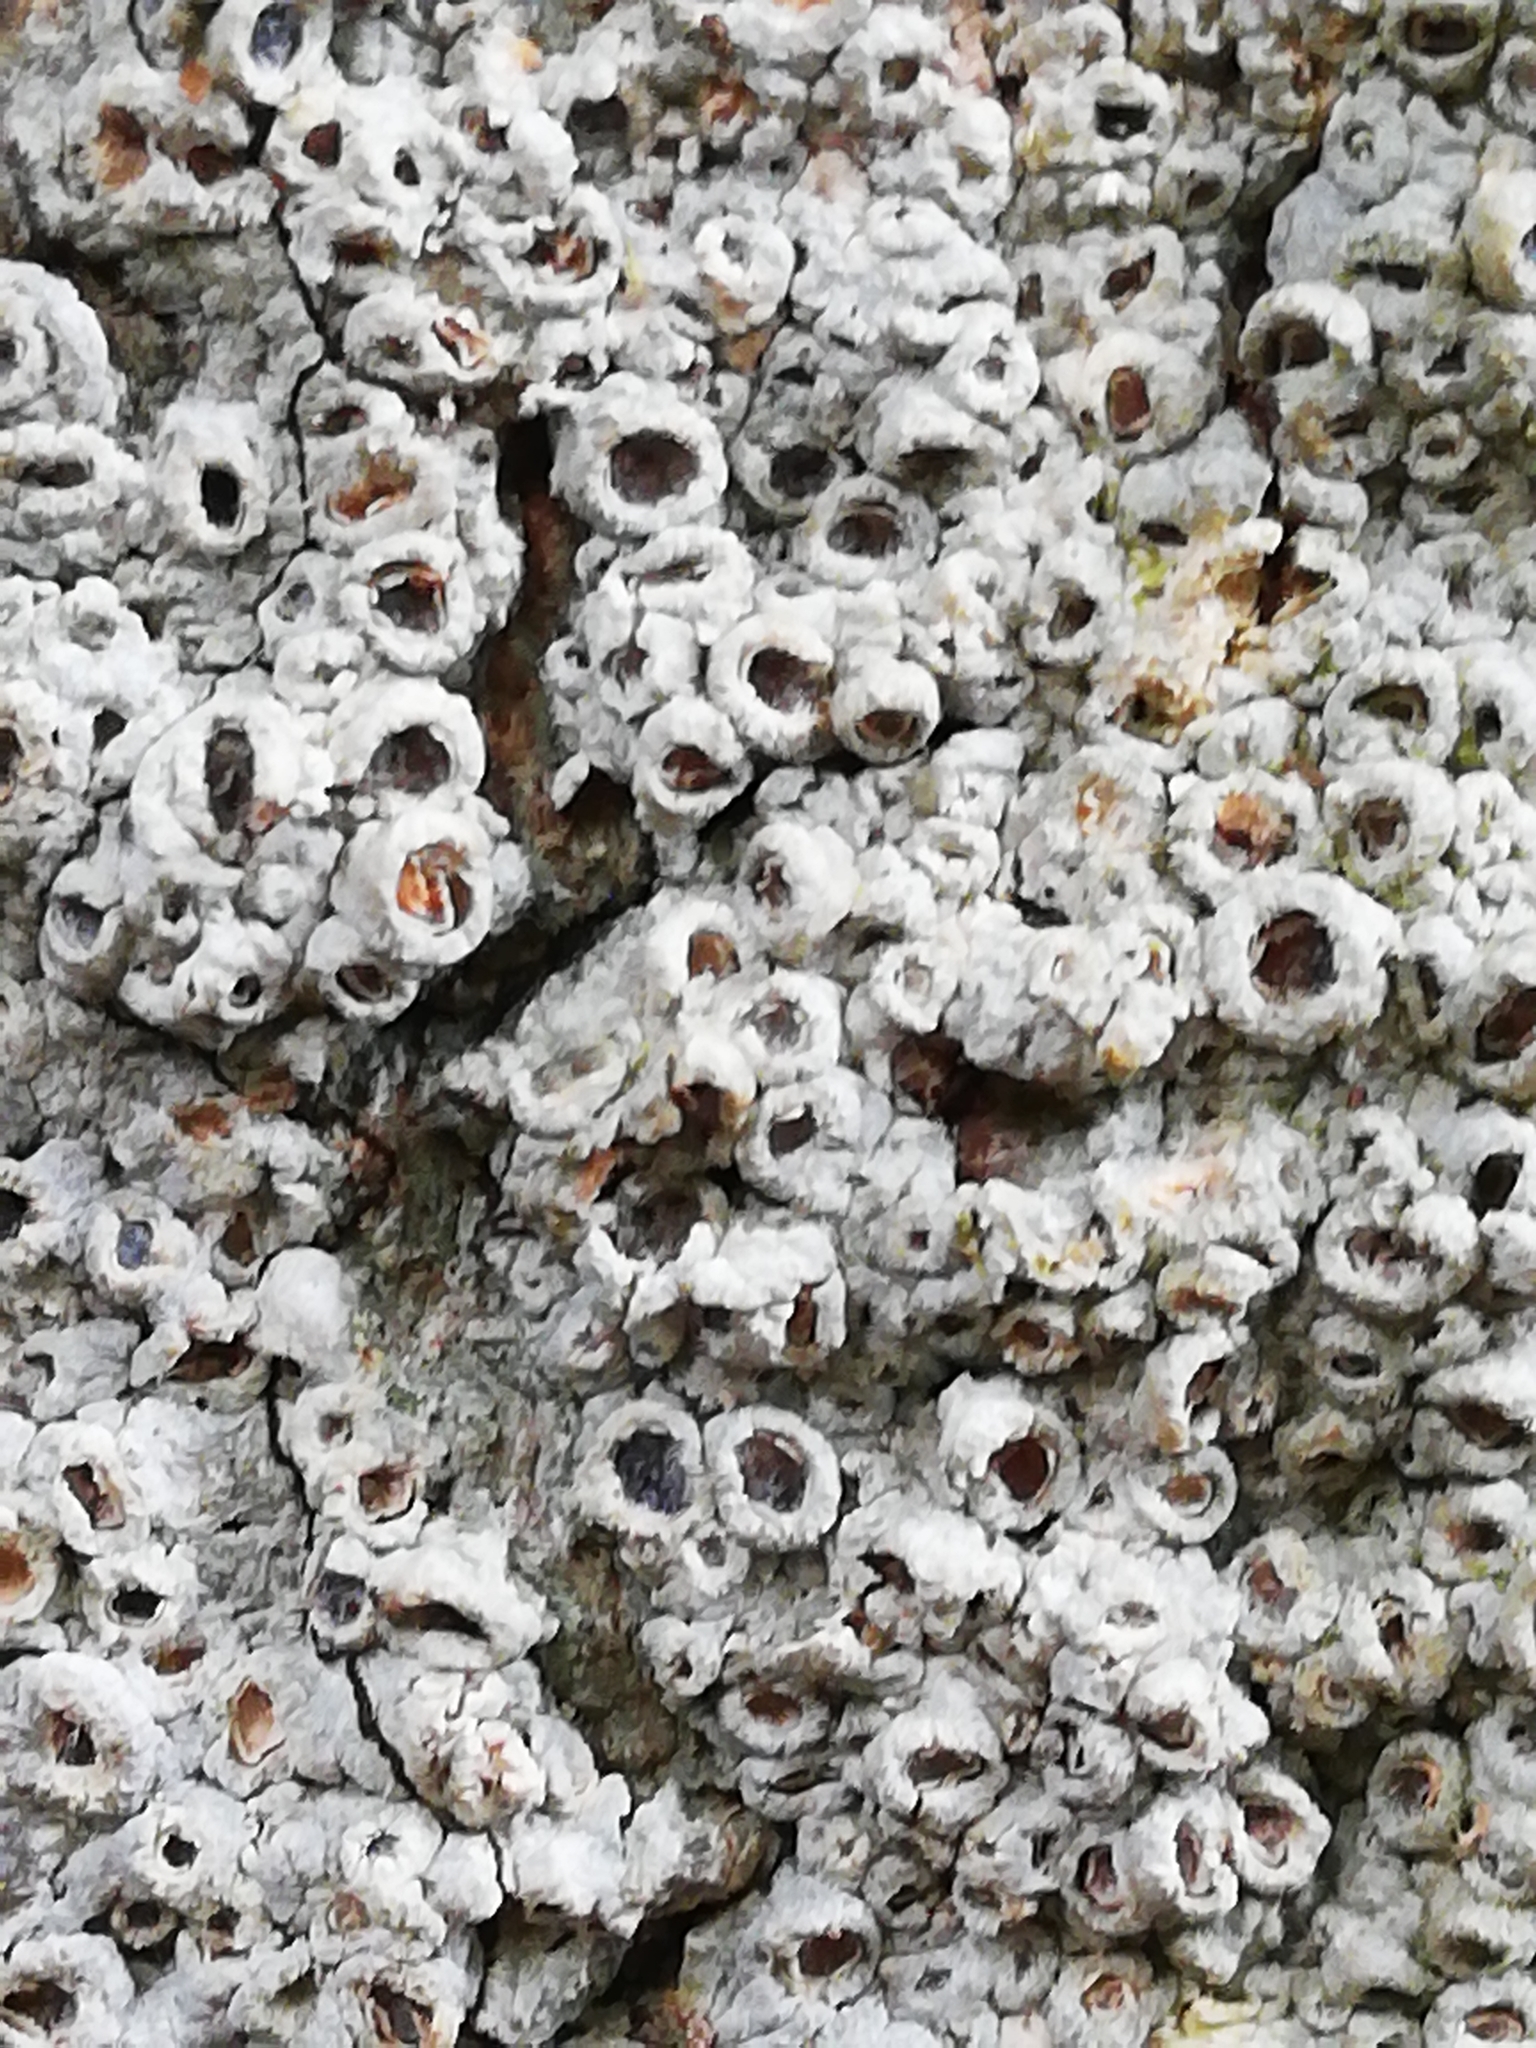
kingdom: Fungi
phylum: Ascomycota
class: Lecanoromycetes
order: Ostropales
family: Graphidaceae
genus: Thelotrema
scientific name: Thelotrema lepadinum
